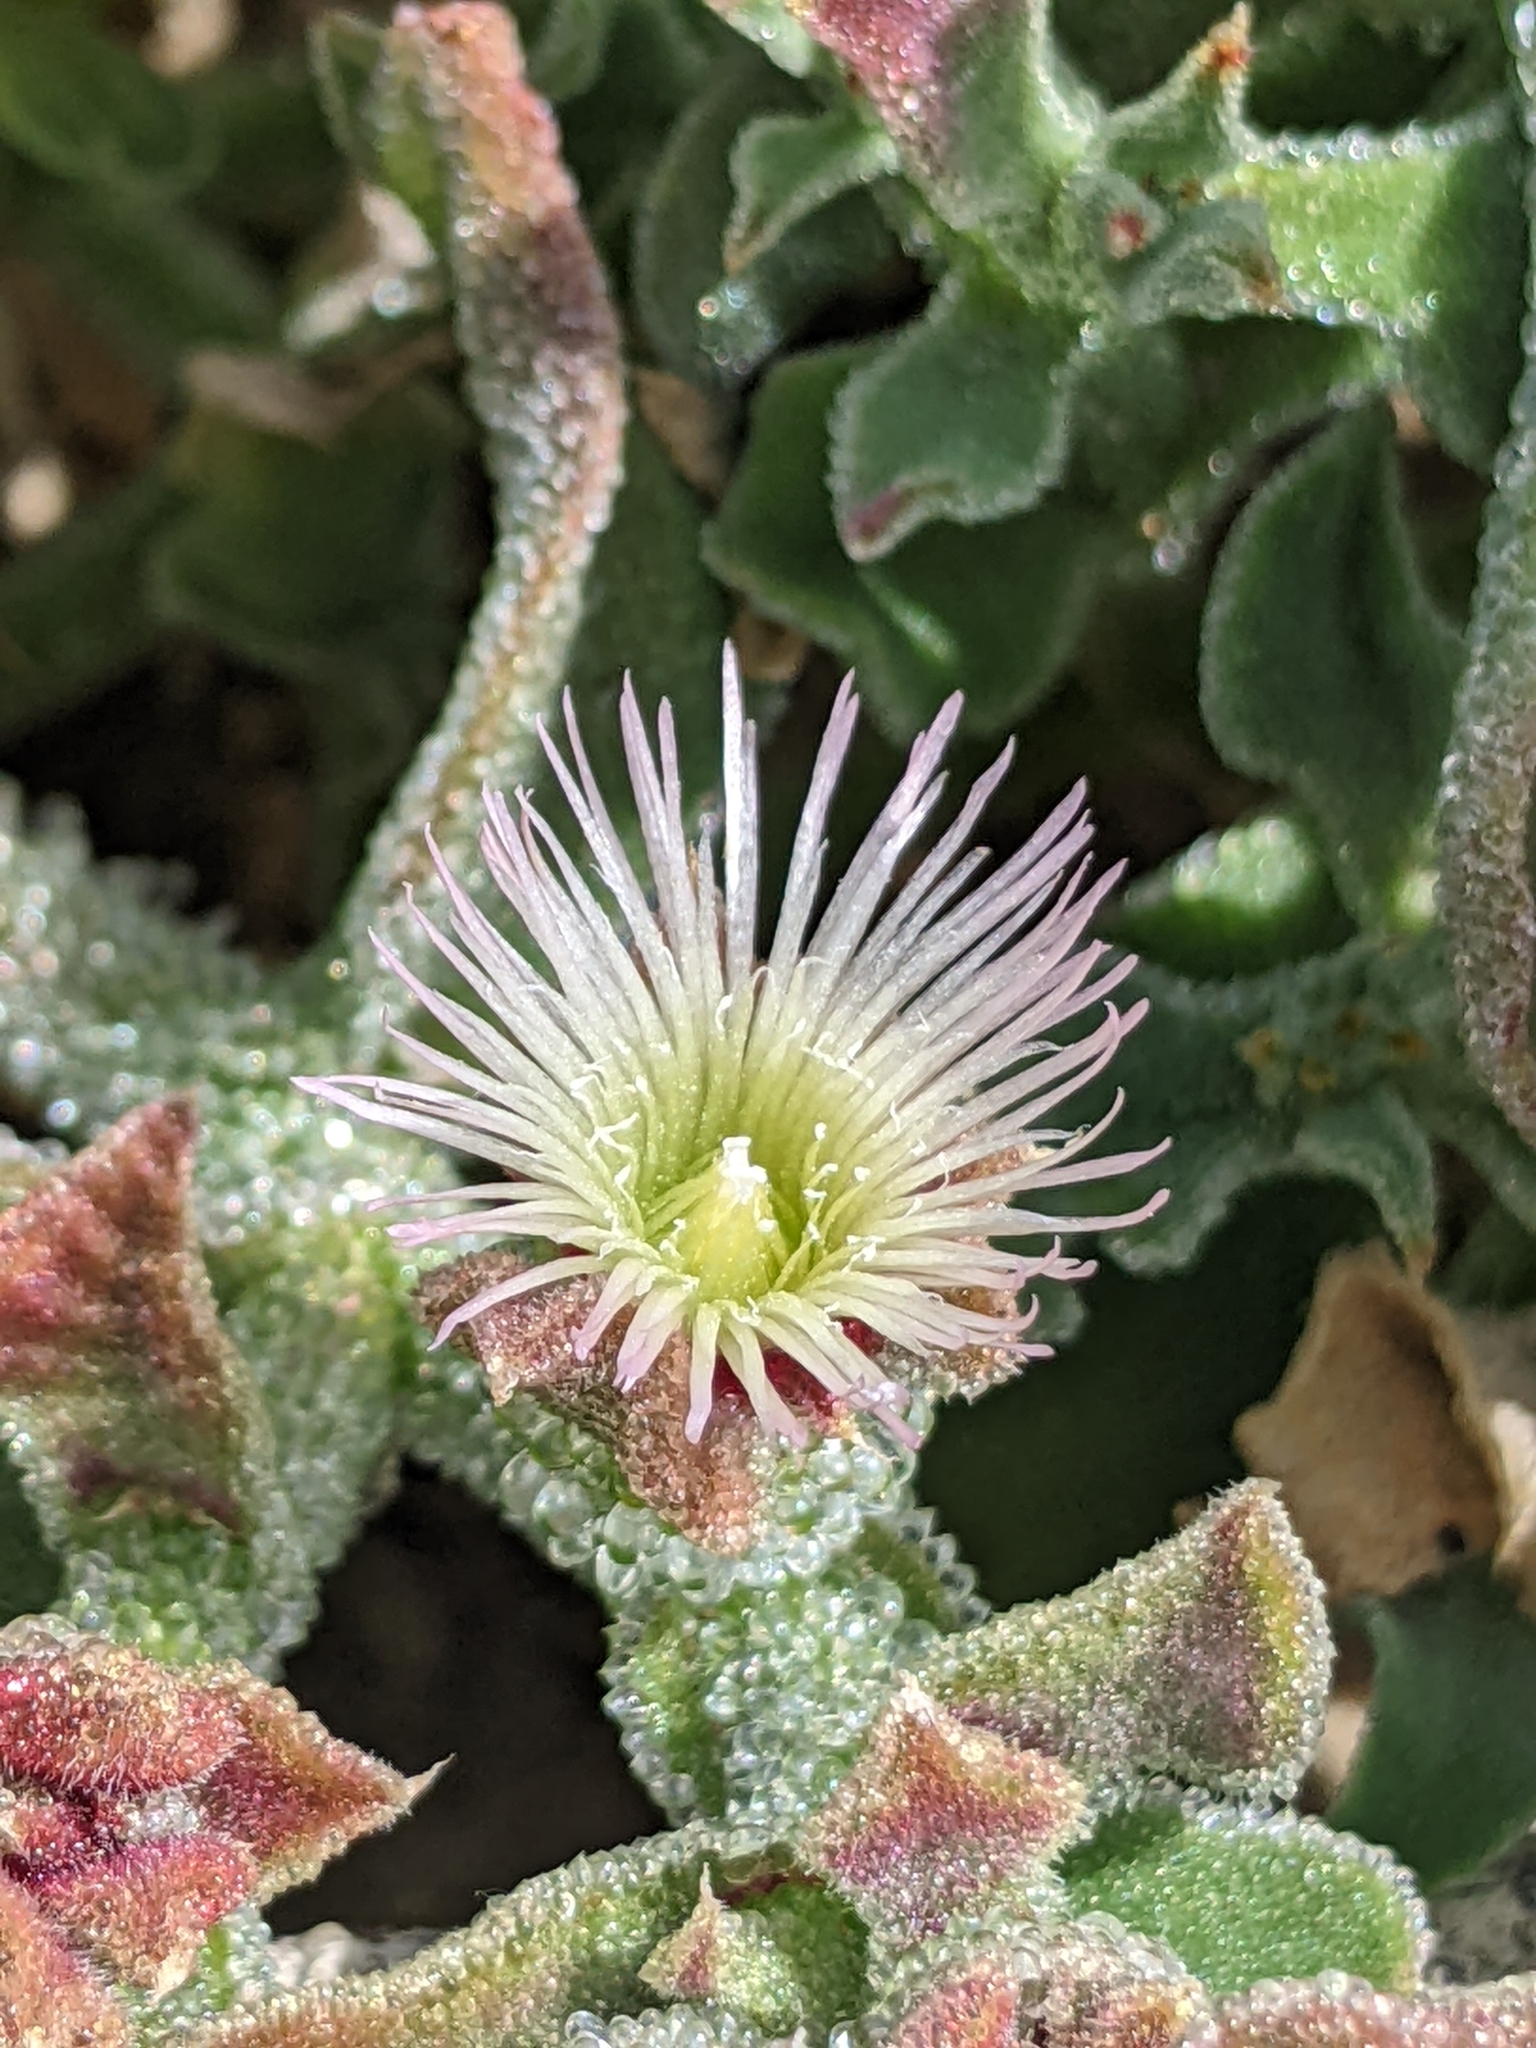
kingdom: Plantae
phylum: Tracheophyta
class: Magnoliopsida
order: Caryophyllales
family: Aizoaceae
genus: Mesembryanthemum
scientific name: Mesembryanthemum crystallinum
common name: Common iceplant
